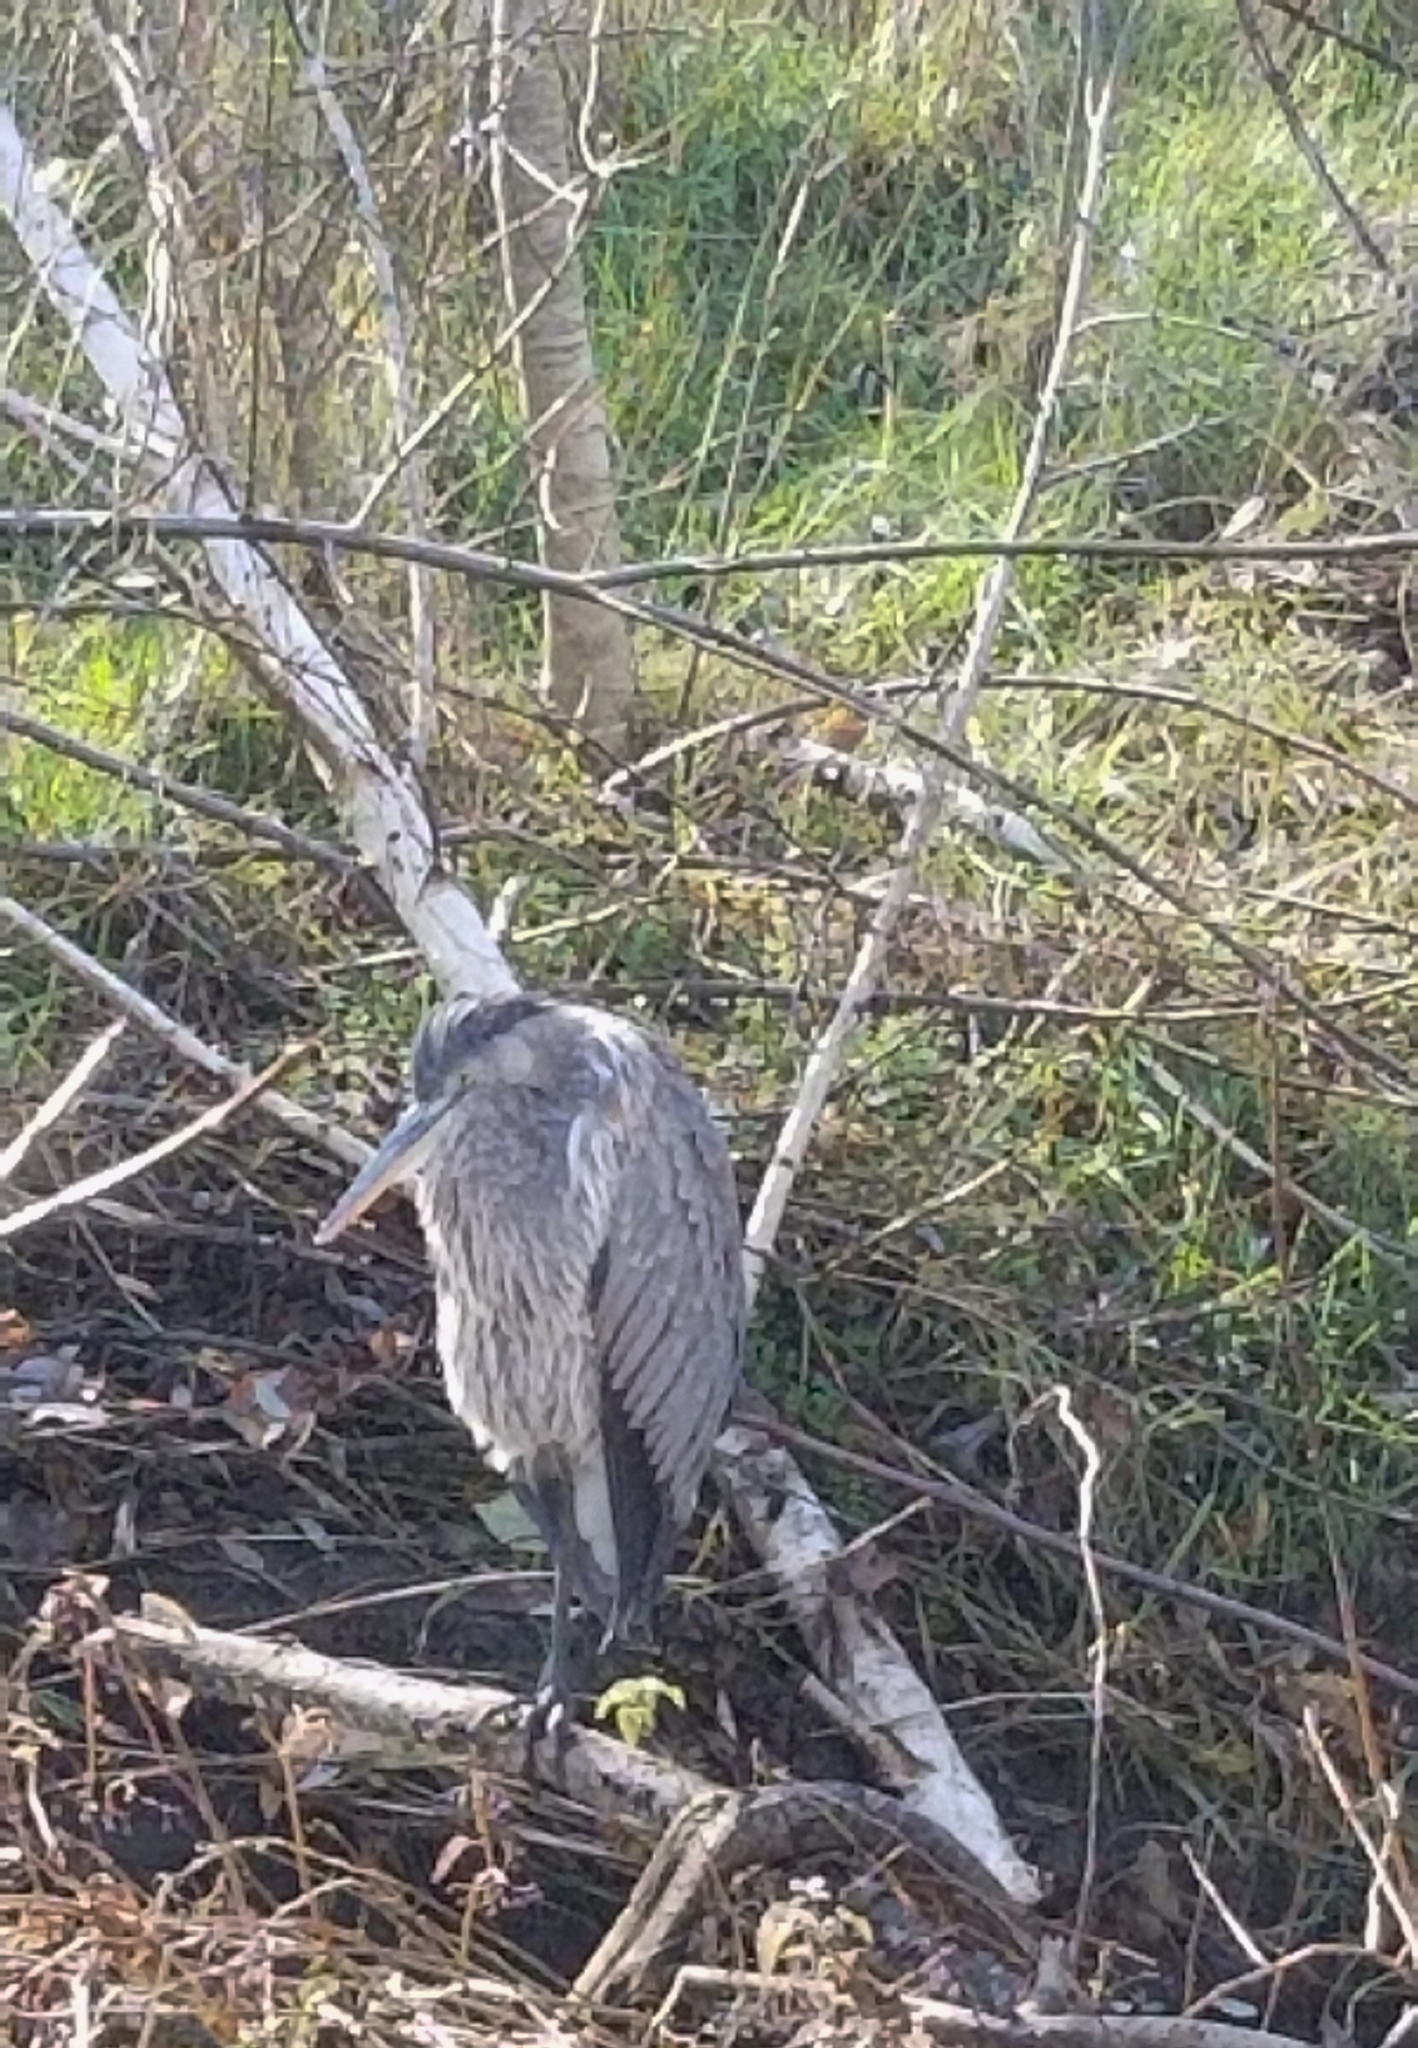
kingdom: Animalia
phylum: Chordata
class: Aves
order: Pelecaniformes
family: Ardeidae
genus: Ardea
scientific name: Ardea herodias
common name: Great blue heron
